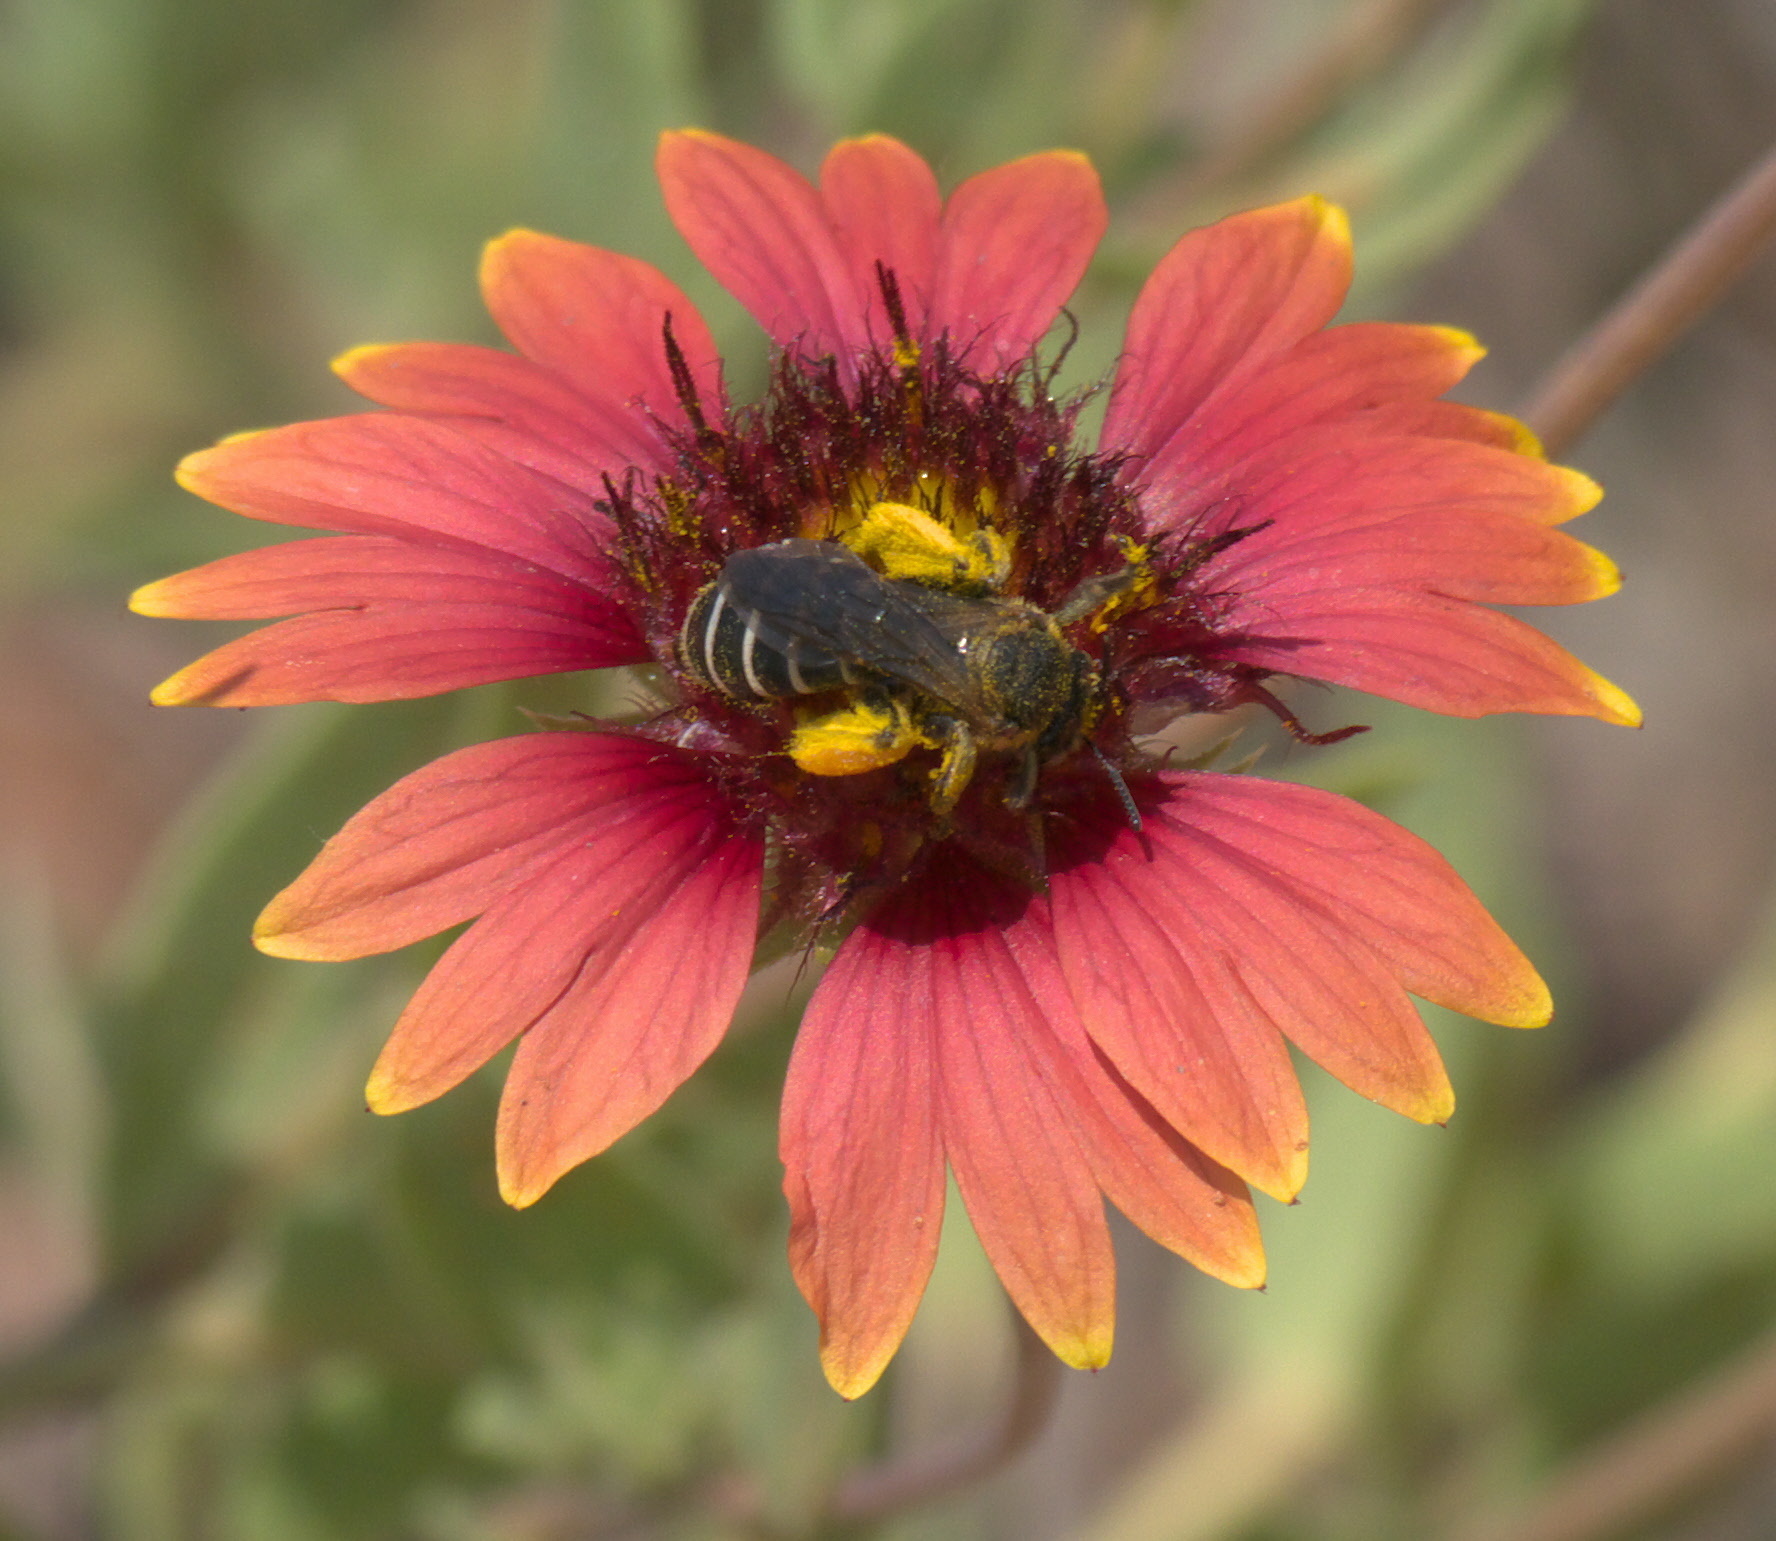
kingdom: Animalia
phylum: Arthropoda
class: Insecta
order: Hymenoptera
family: Melittidae
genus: Hesperapis
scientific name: Hesperapis
